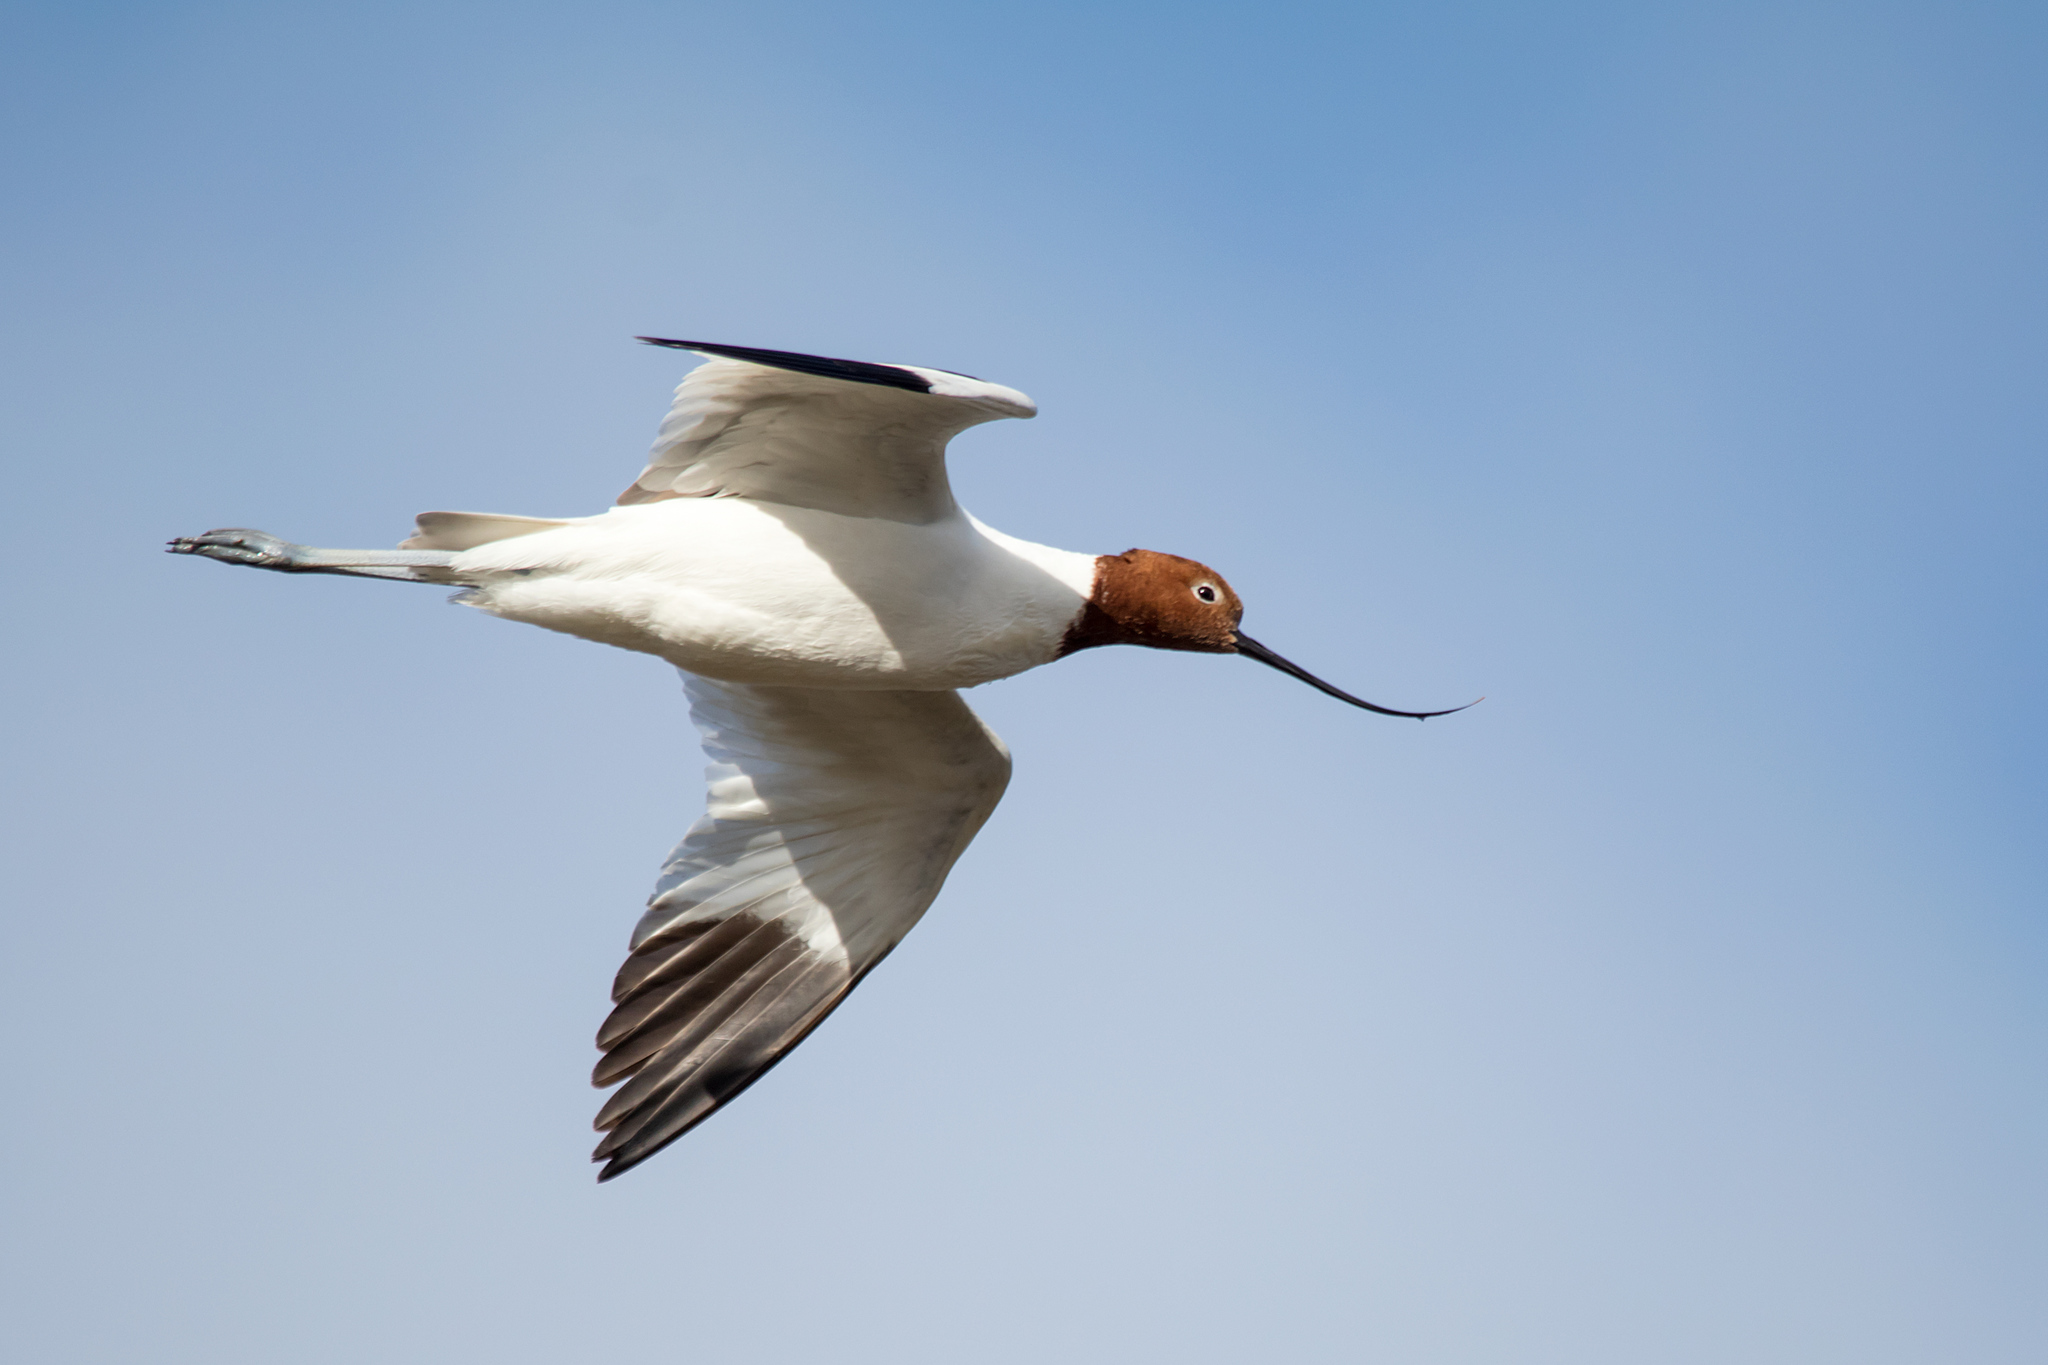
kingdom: Animalia
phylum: Chordata
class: Aves
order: Charadriiformes
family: Recurvirostridae
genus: Recurvirostra
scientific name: Recurvirostra novaehollandiae
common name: Red-necked avocet
